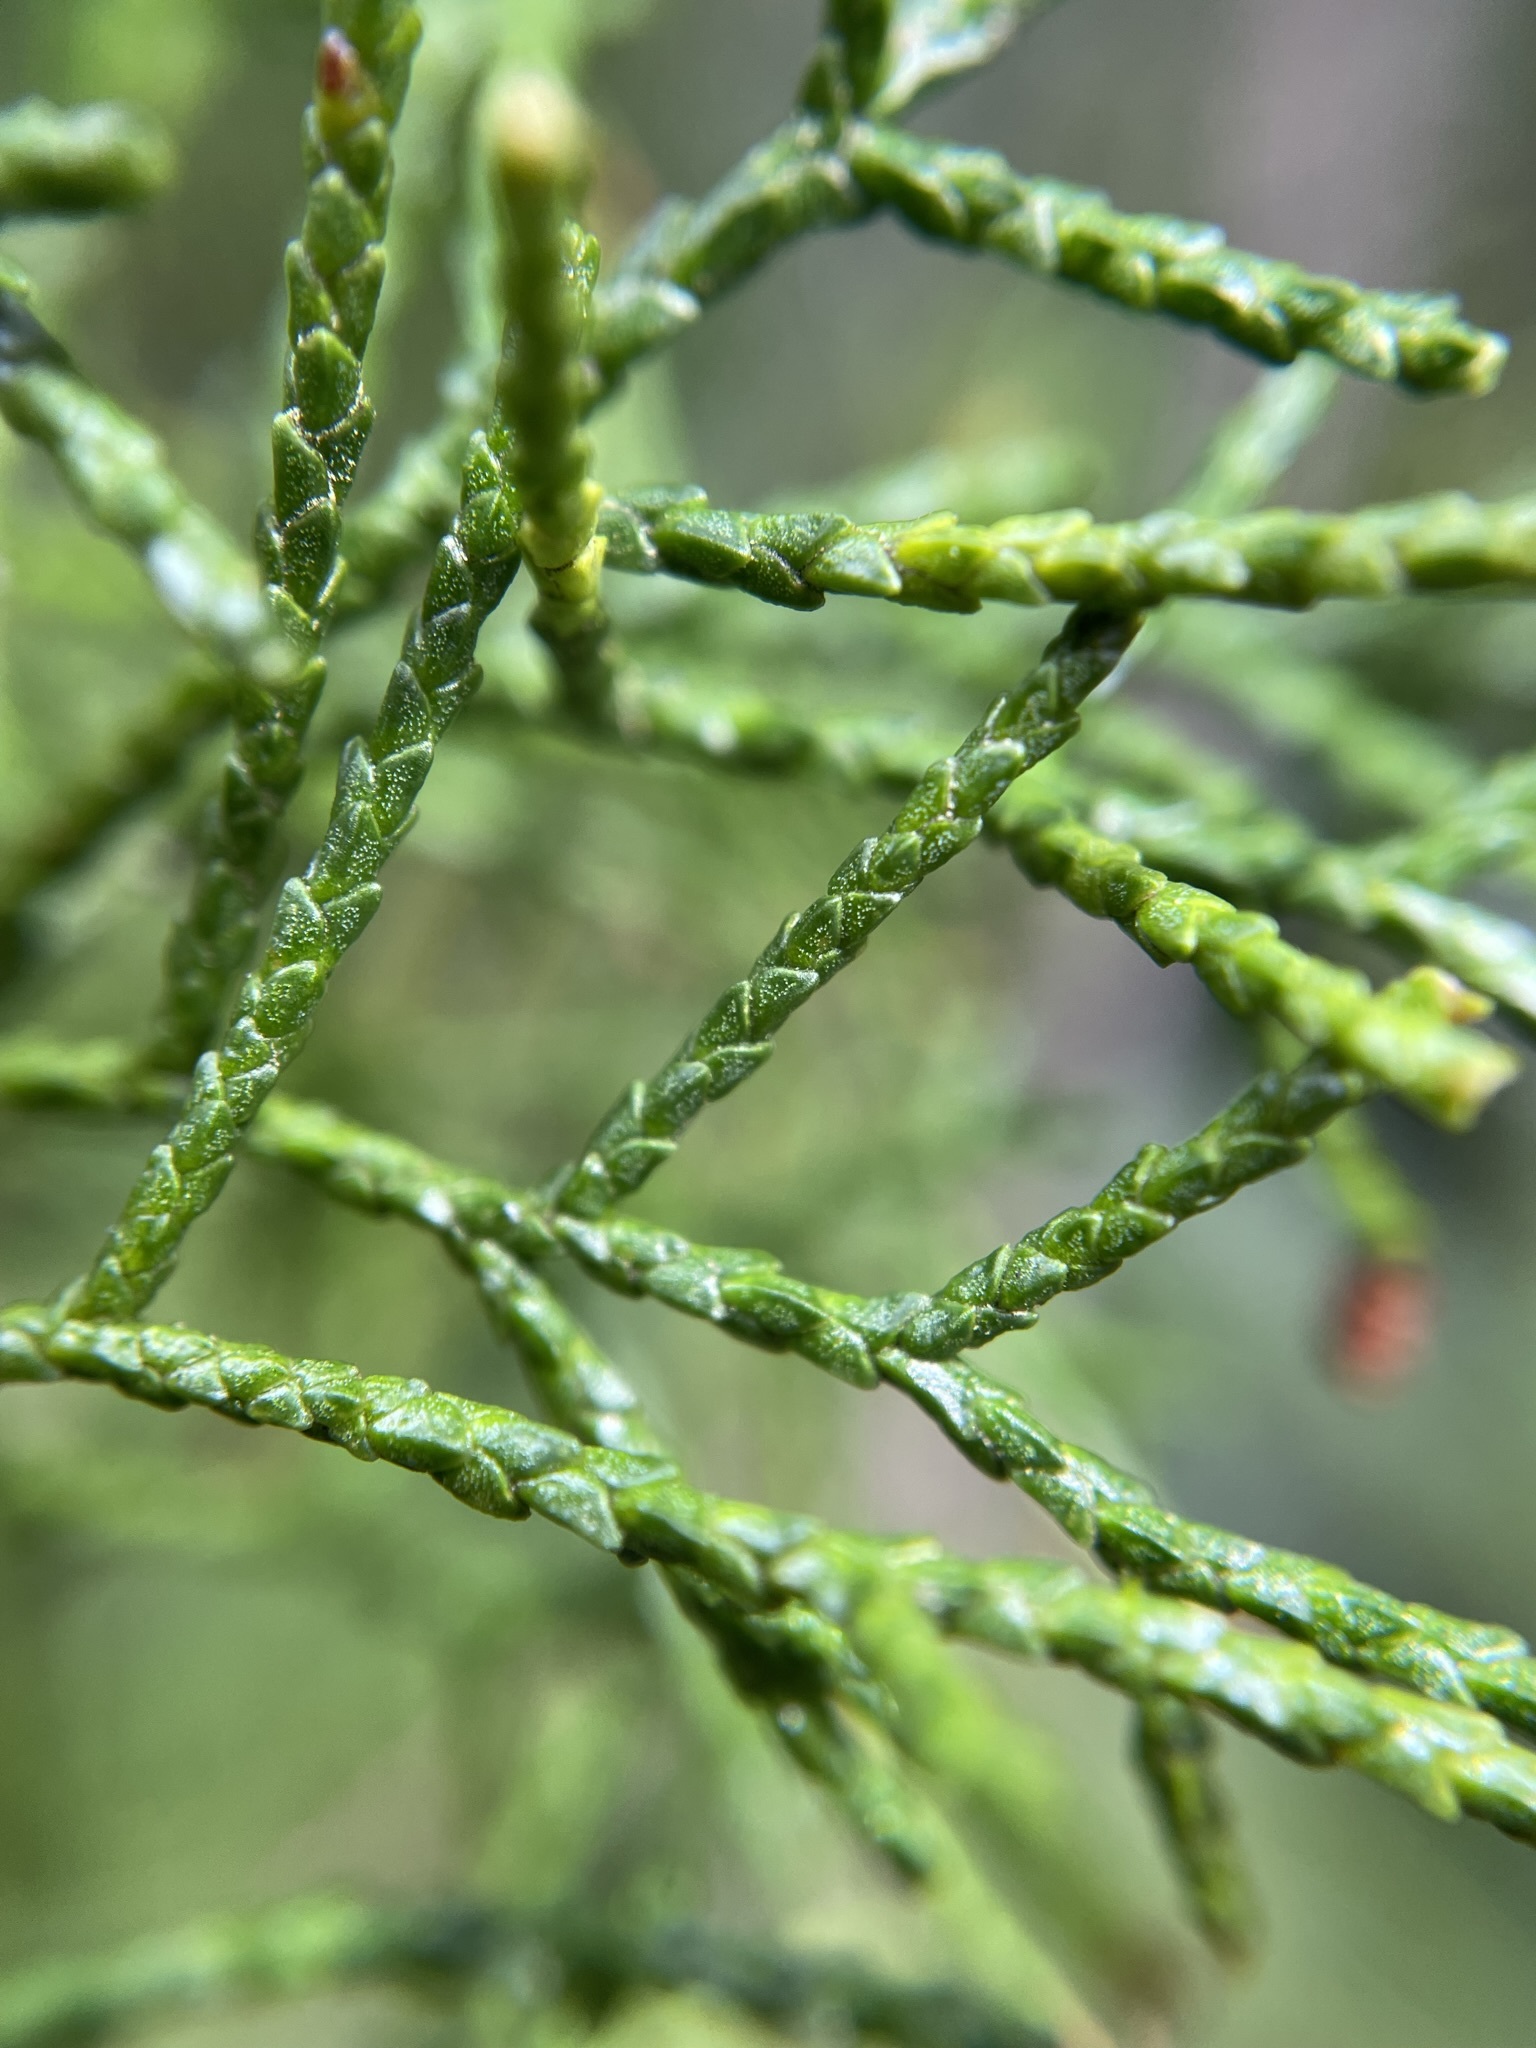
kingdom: Plantae
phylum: Tracheophyta
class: Pinopsida
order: Pinales
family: Podocarpaceae
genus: Lagarostrobos
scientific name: Lagarostrobos franklinii
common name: Huon pine
